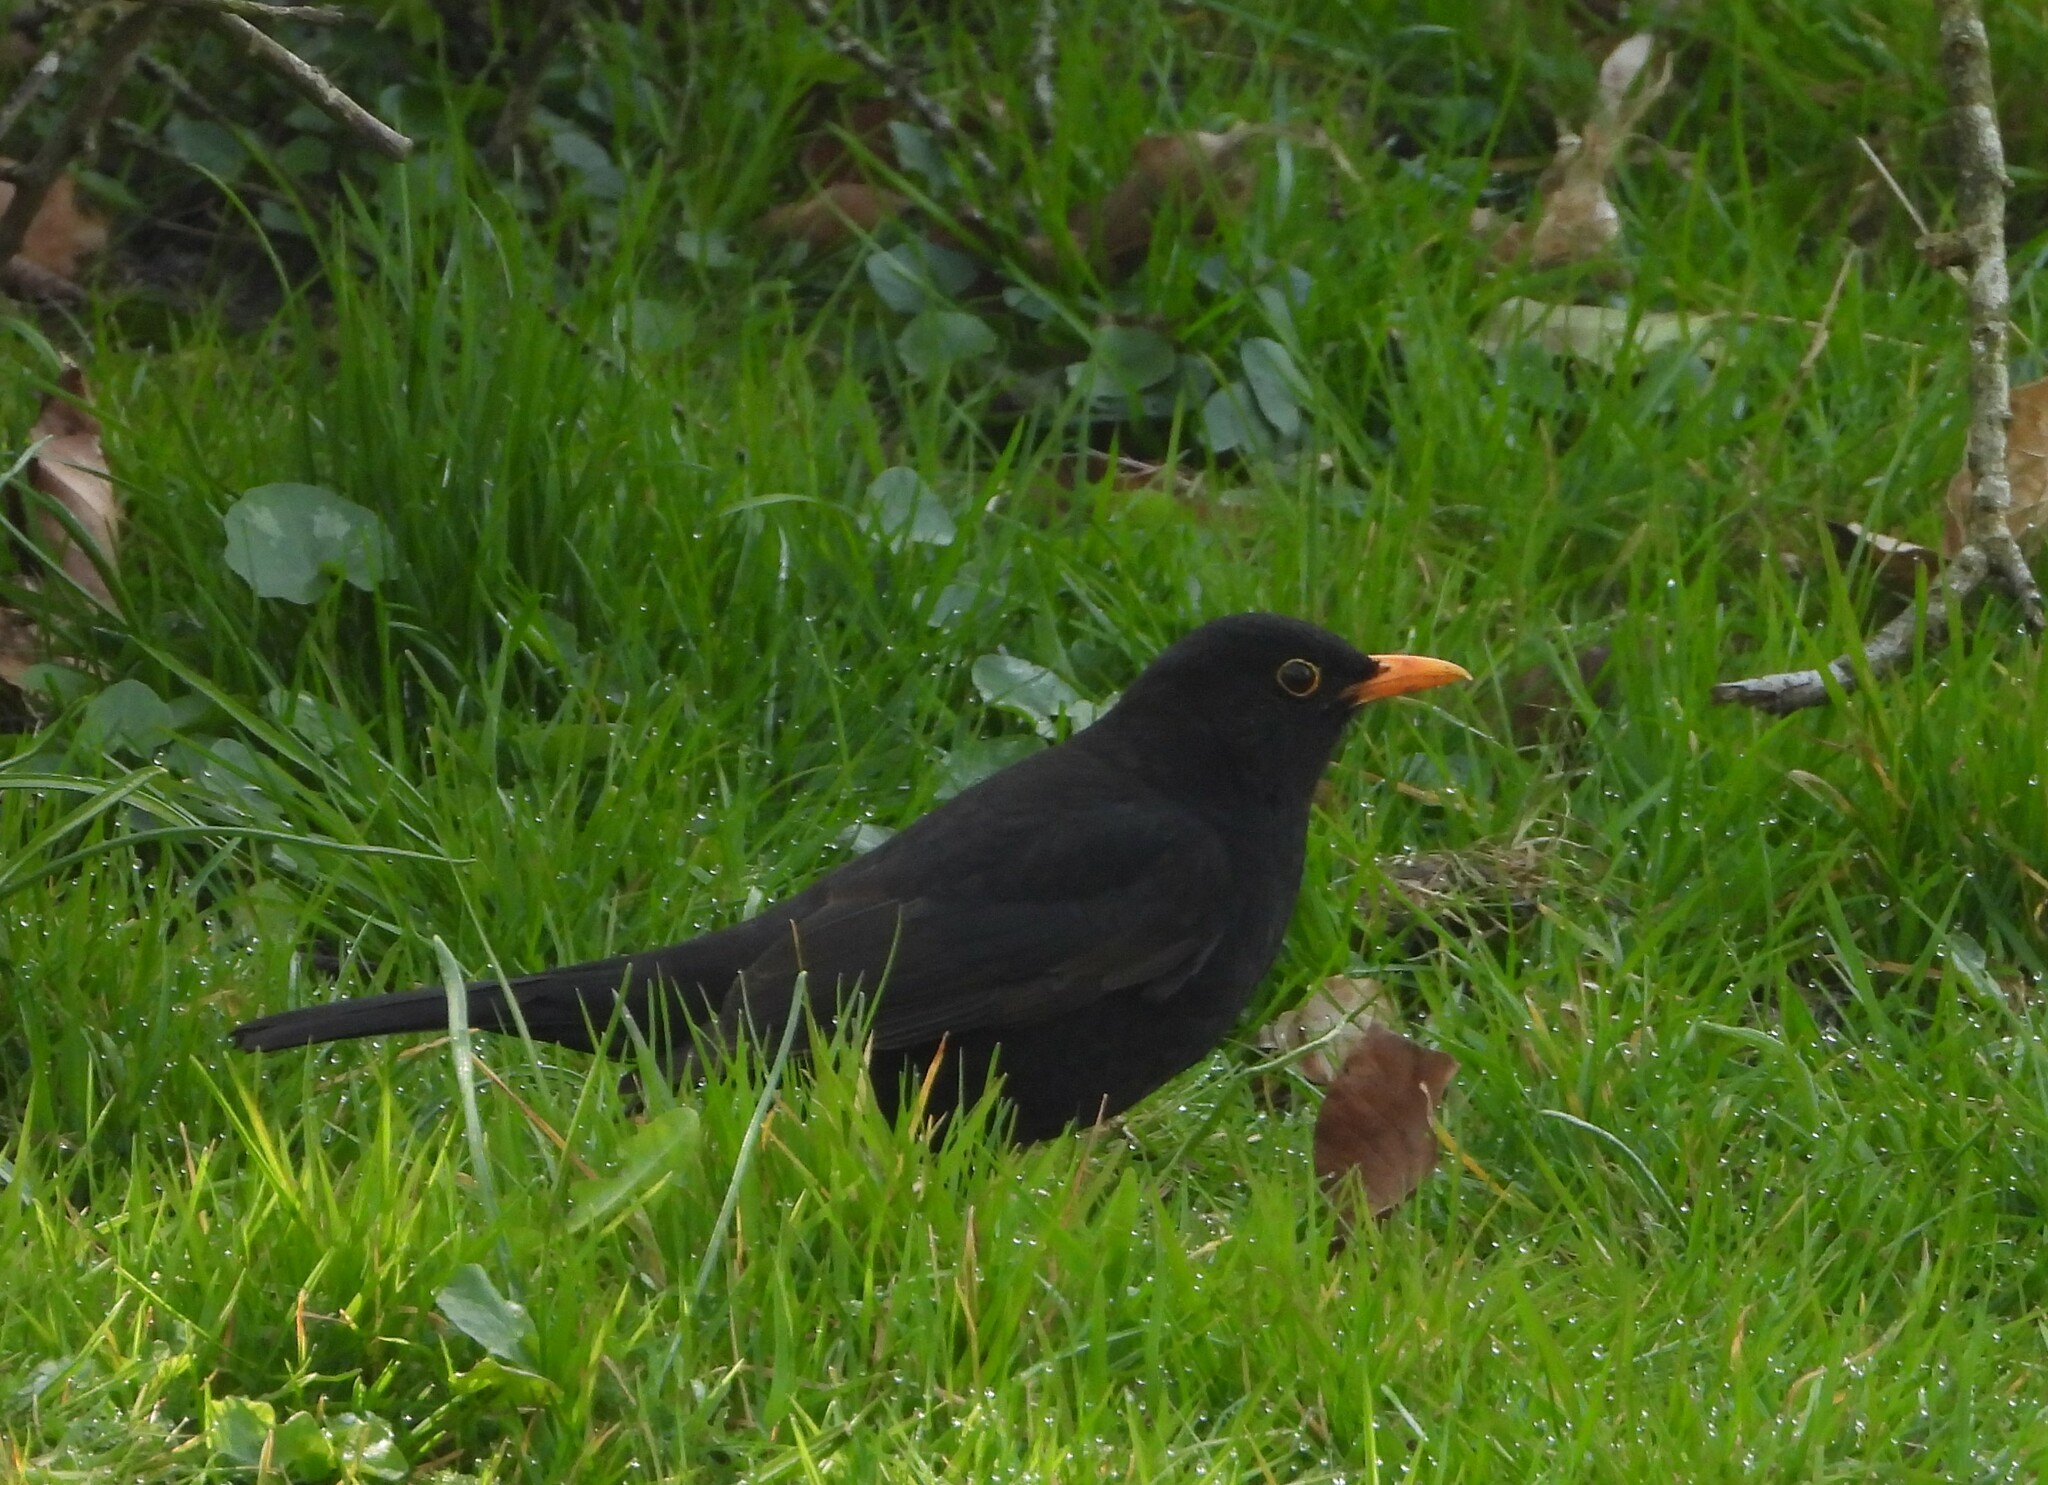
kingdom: Animalia
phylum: Chordata
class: Aves
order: Passeriformes
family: Turdidae
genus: Turdus
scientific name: Turdus merula
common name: Common blackbird
